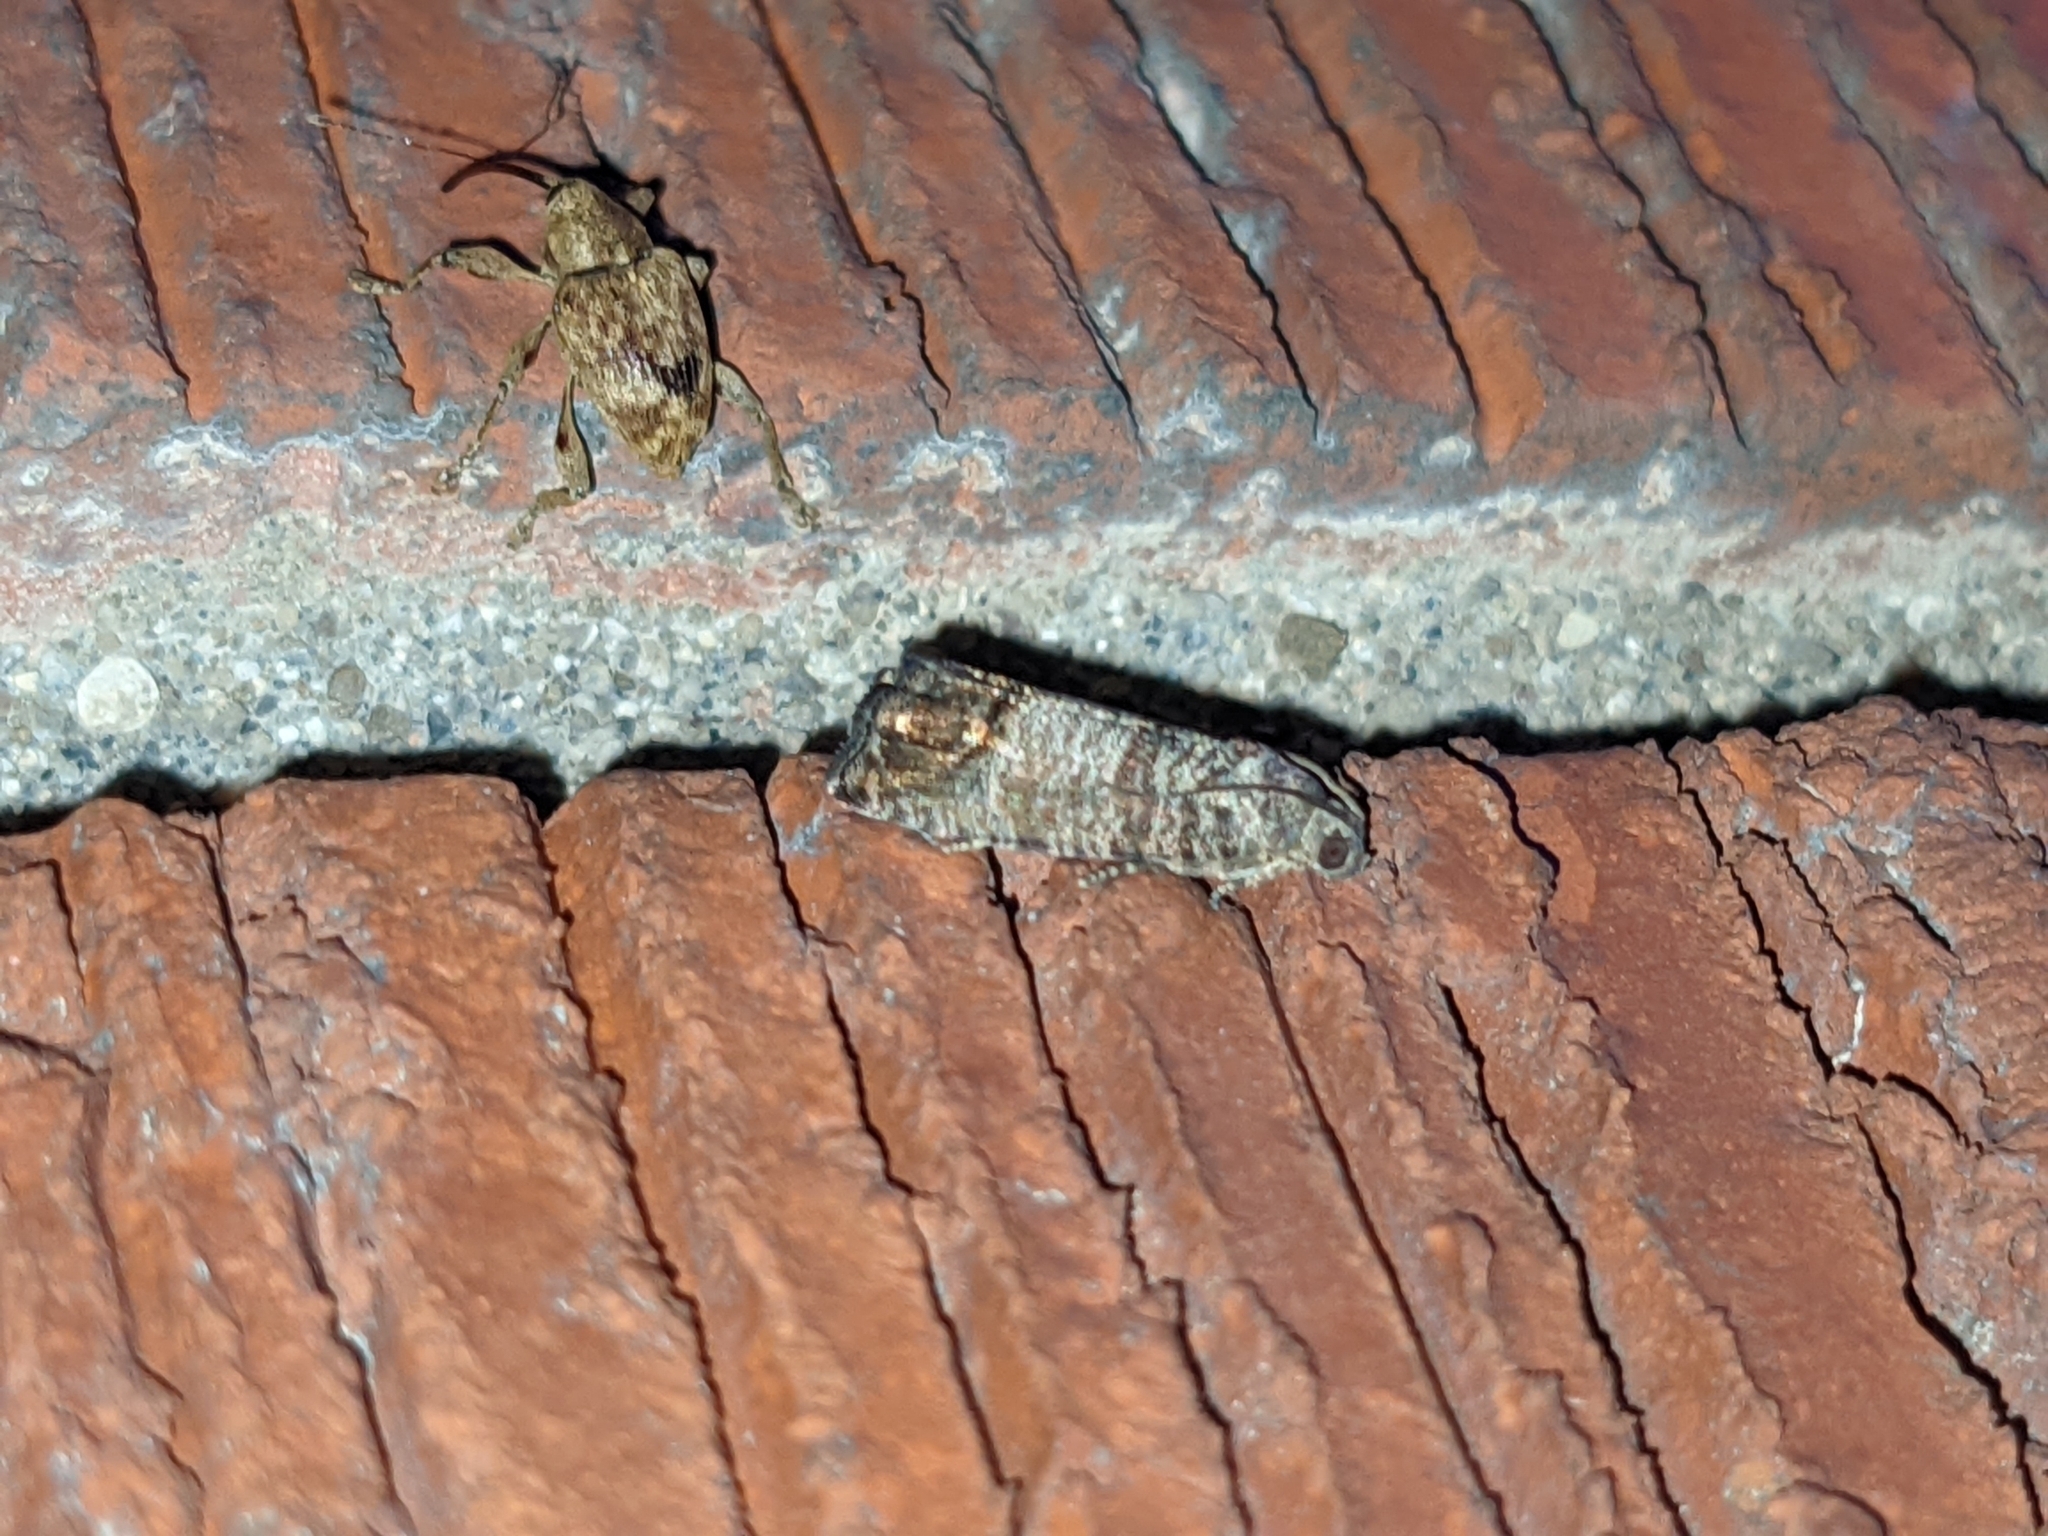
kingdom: Animalia
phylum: Arthropoda
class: Insecta
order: Lepidoptera
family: Tortricidae
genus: Cydia
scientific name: Cydia pomonella
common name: Codling moth
